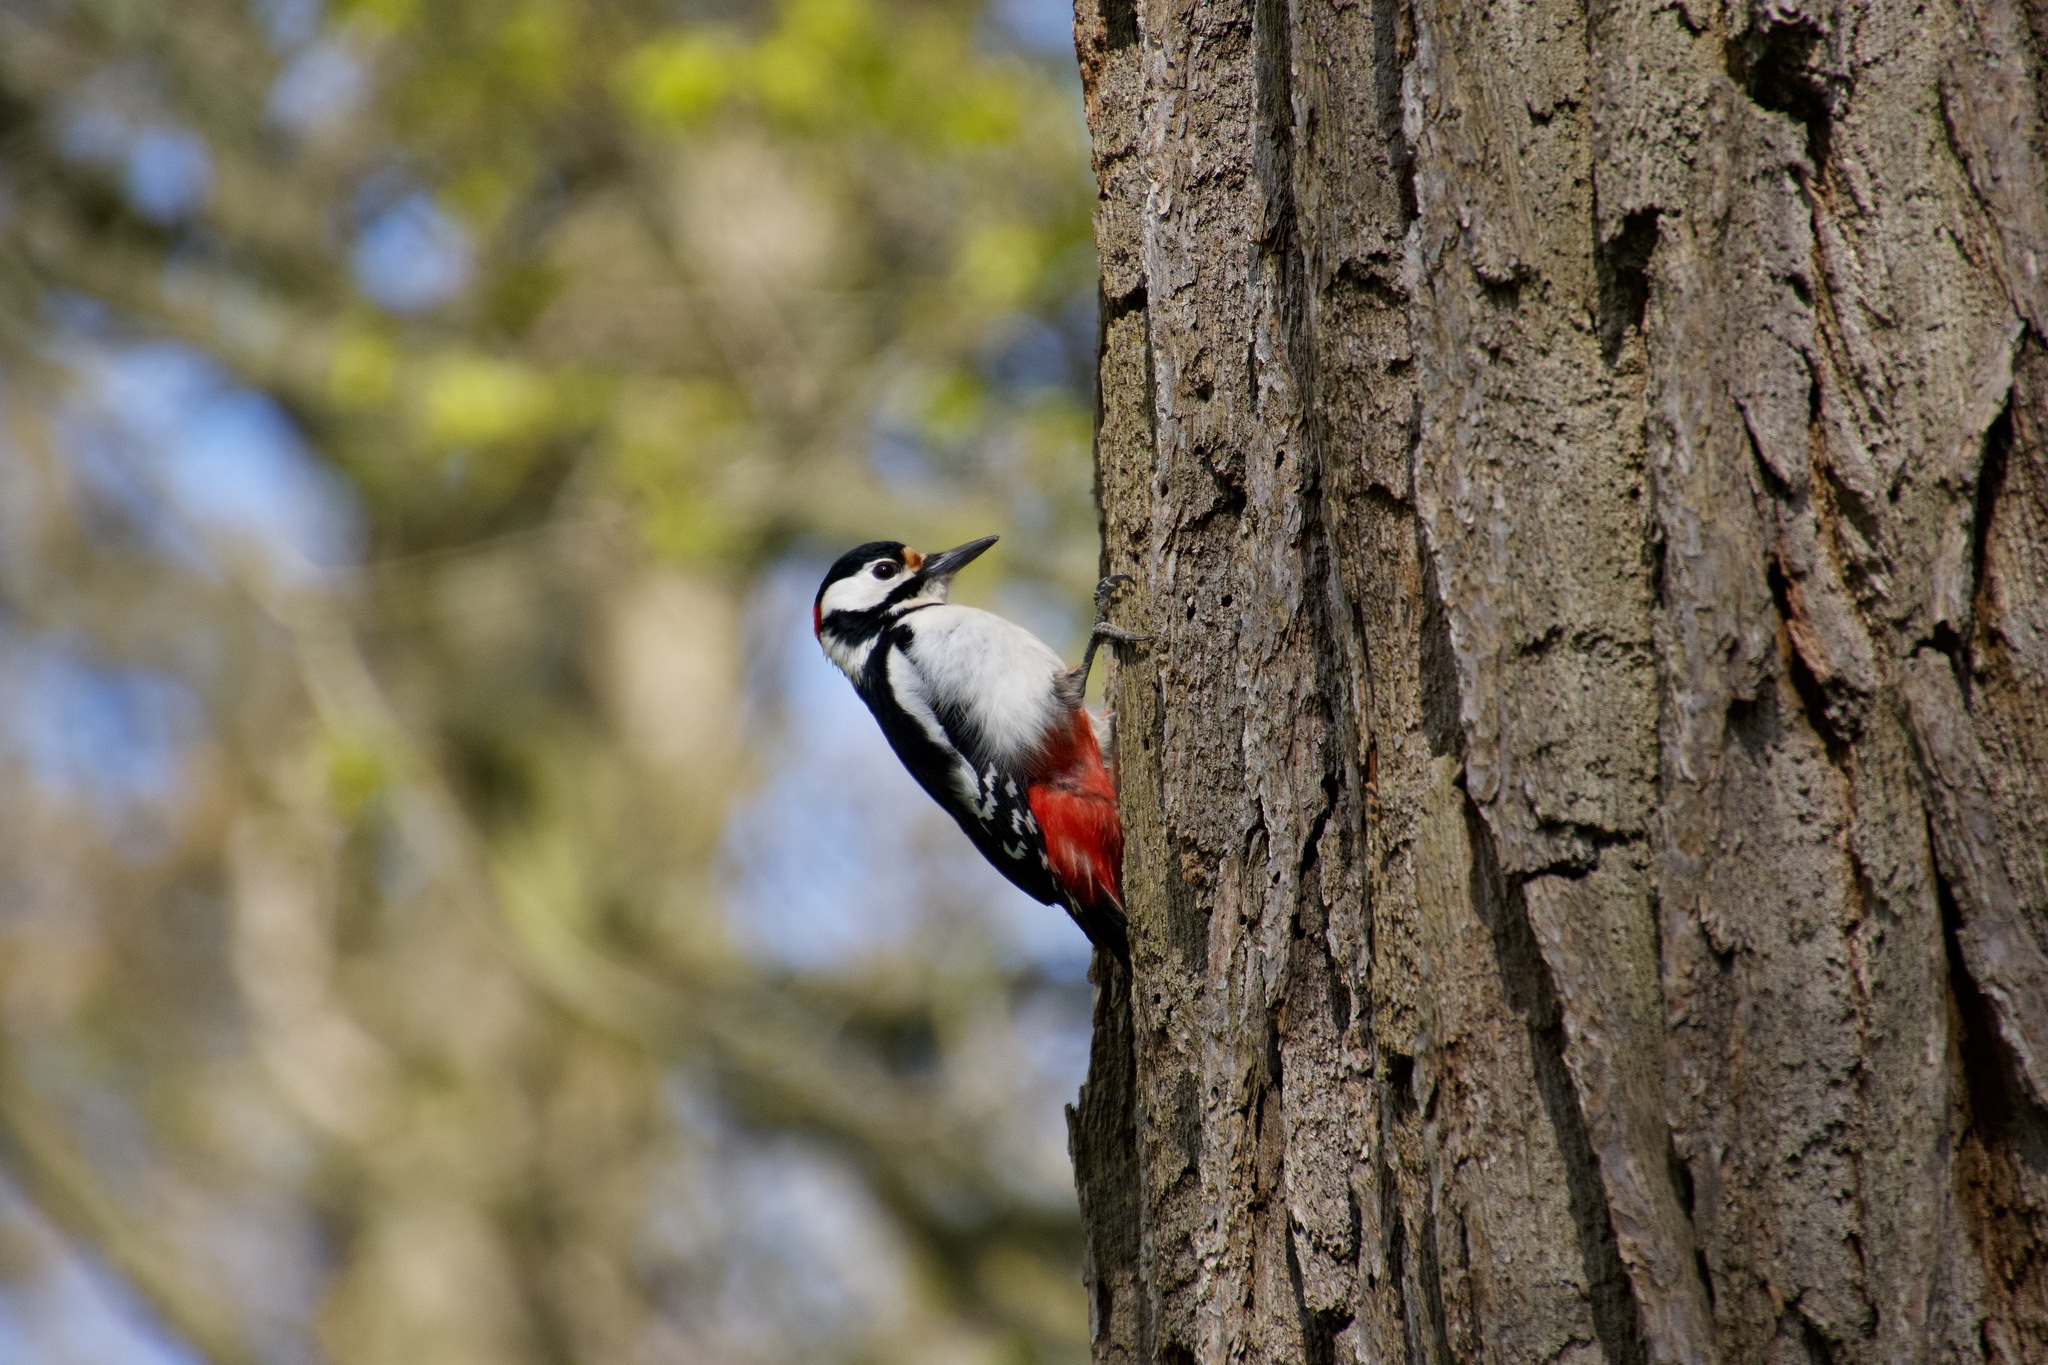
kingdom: Animalia
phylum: Chordata
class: Aves
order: Piciformes
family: Picidae
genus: Dendrocopos
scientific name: Dendrocopos major
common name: Great spotted woodpecker
